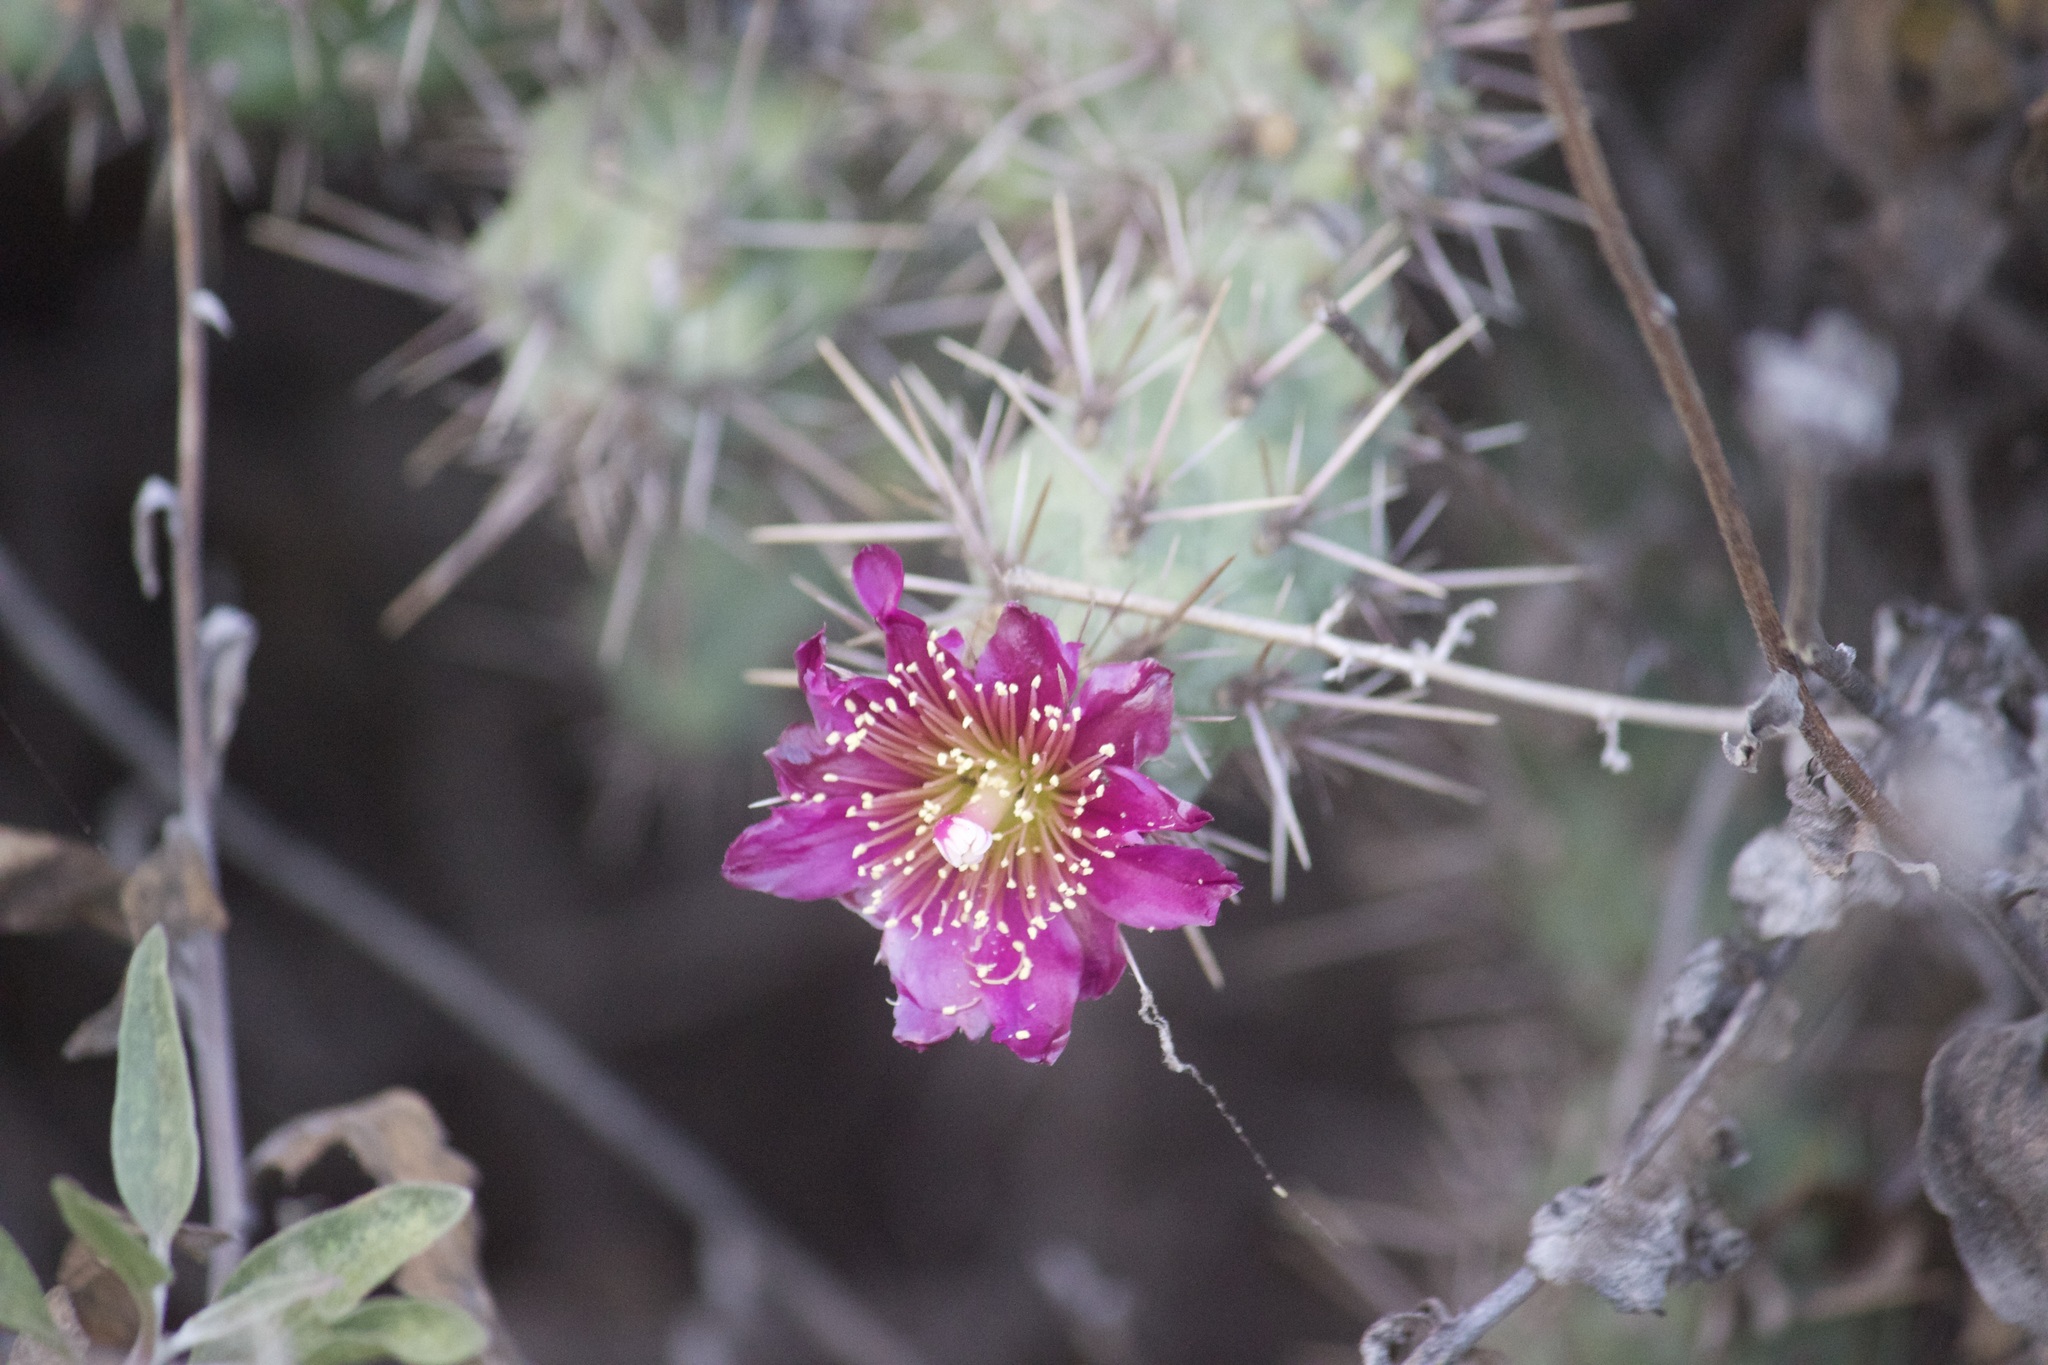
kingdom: Plantae
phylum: Tracheophyta
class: Magnoliopsida
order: Caryophyllales
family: Cactaceae
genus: Cylindropuntia
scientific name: Cylindropuntia prolifera
